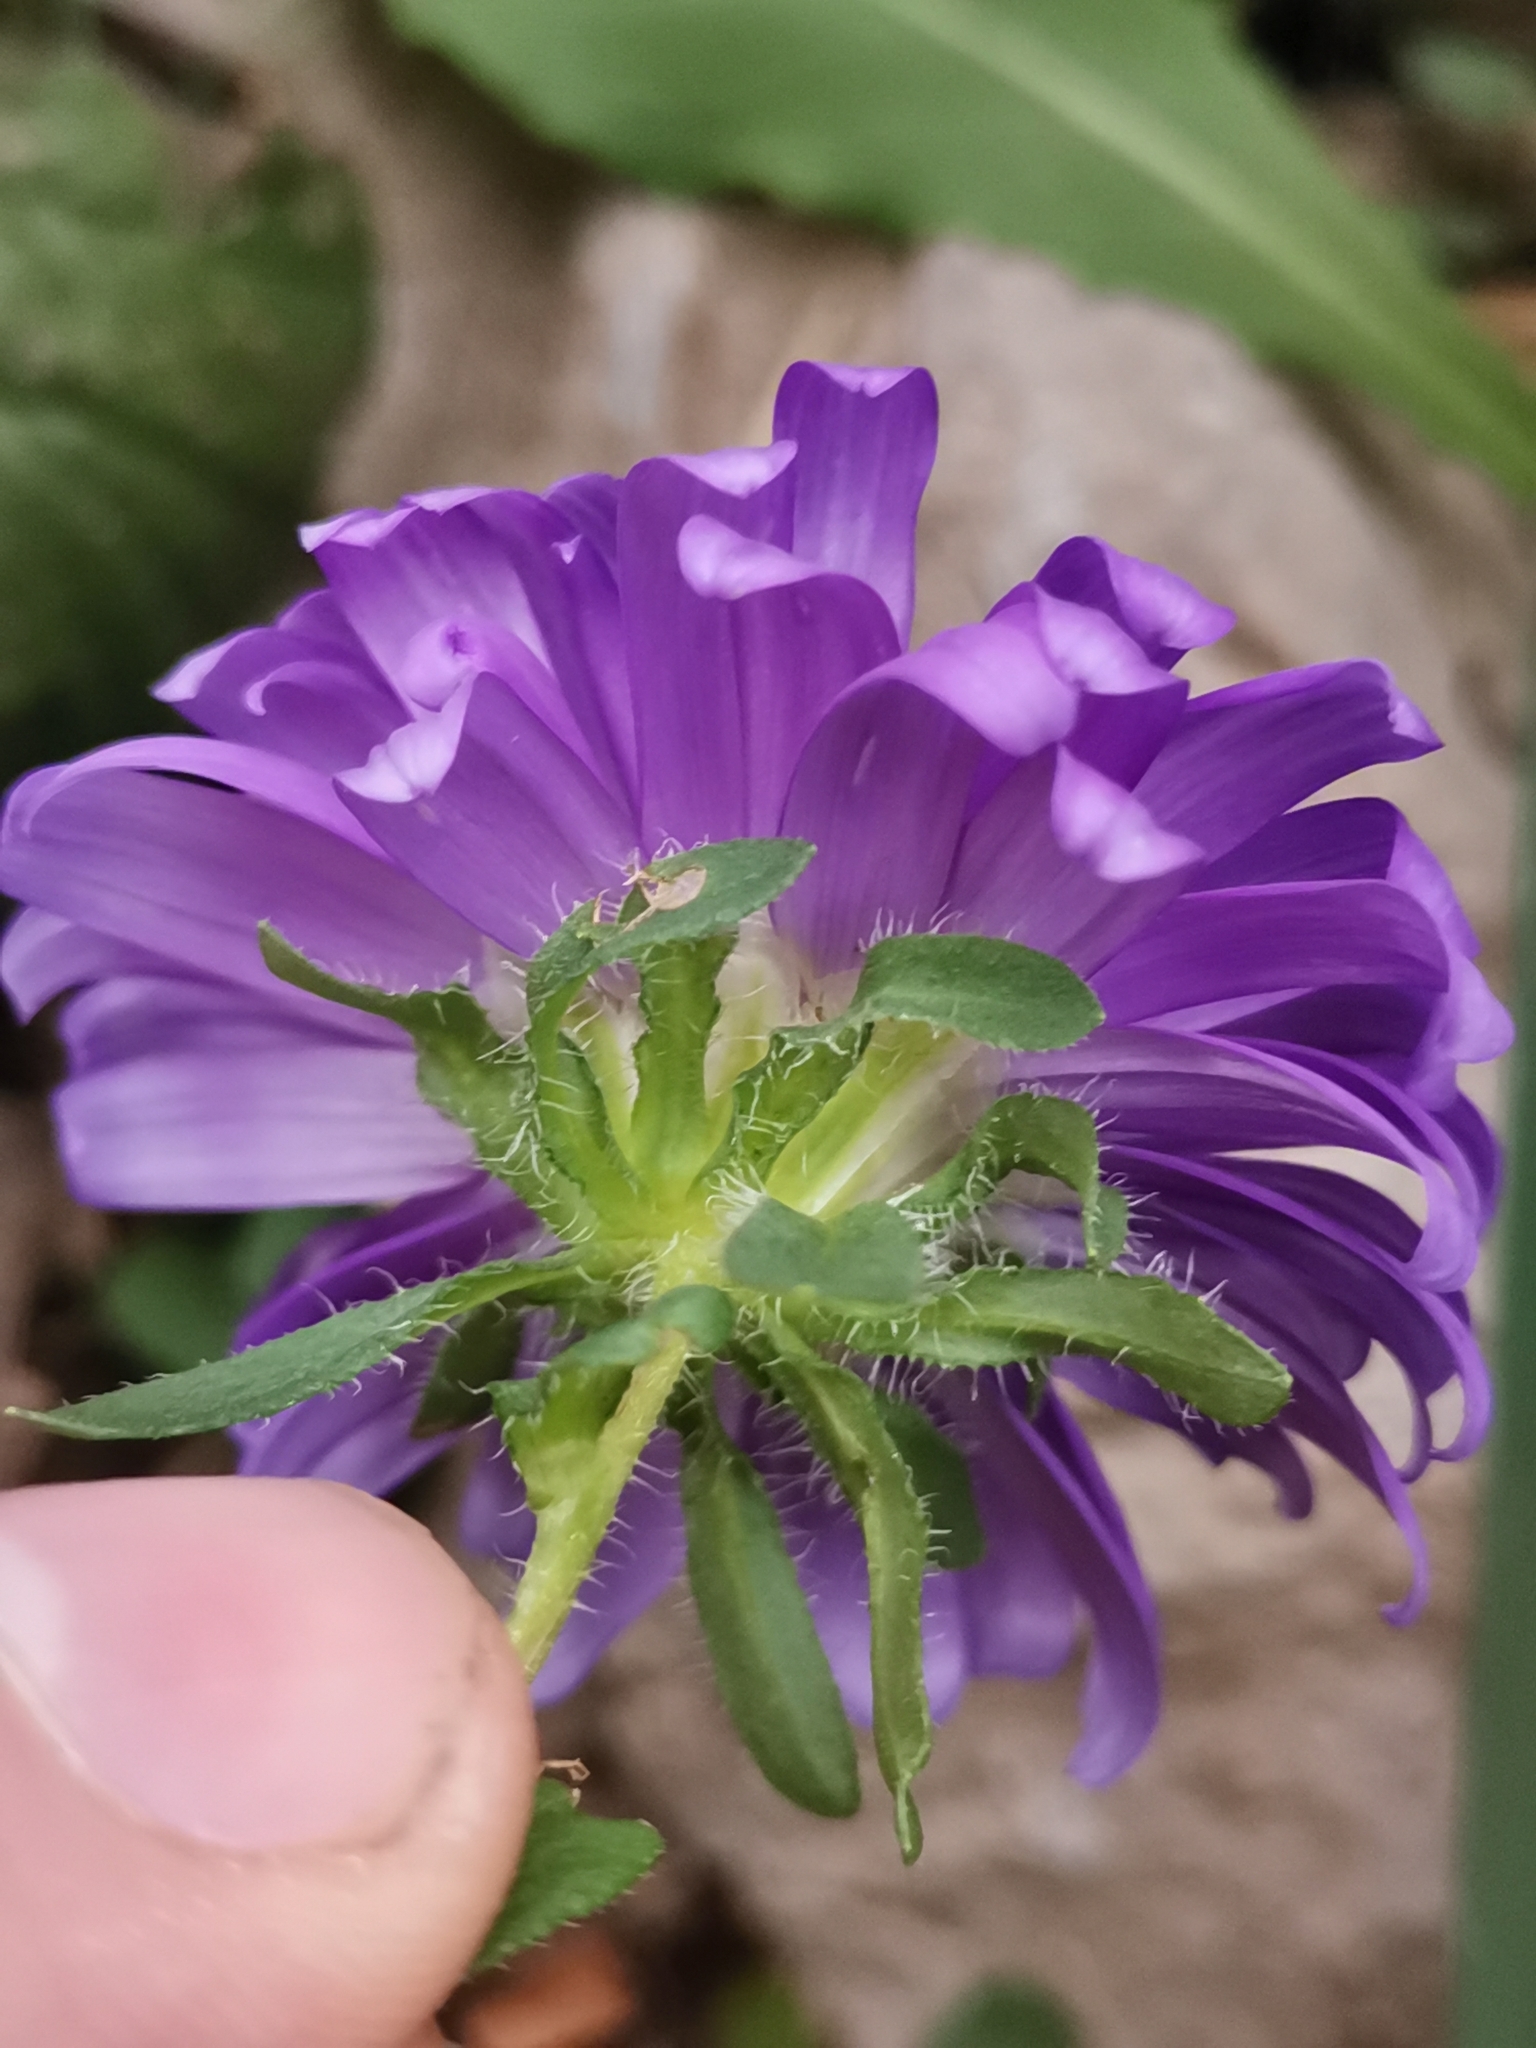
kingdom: Plantae
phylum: Tracheophyta
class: Magnoliopsida
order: Asterales
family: Asteraceae
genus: Callistephus
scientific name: Callistephus chinensis
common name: China aster
